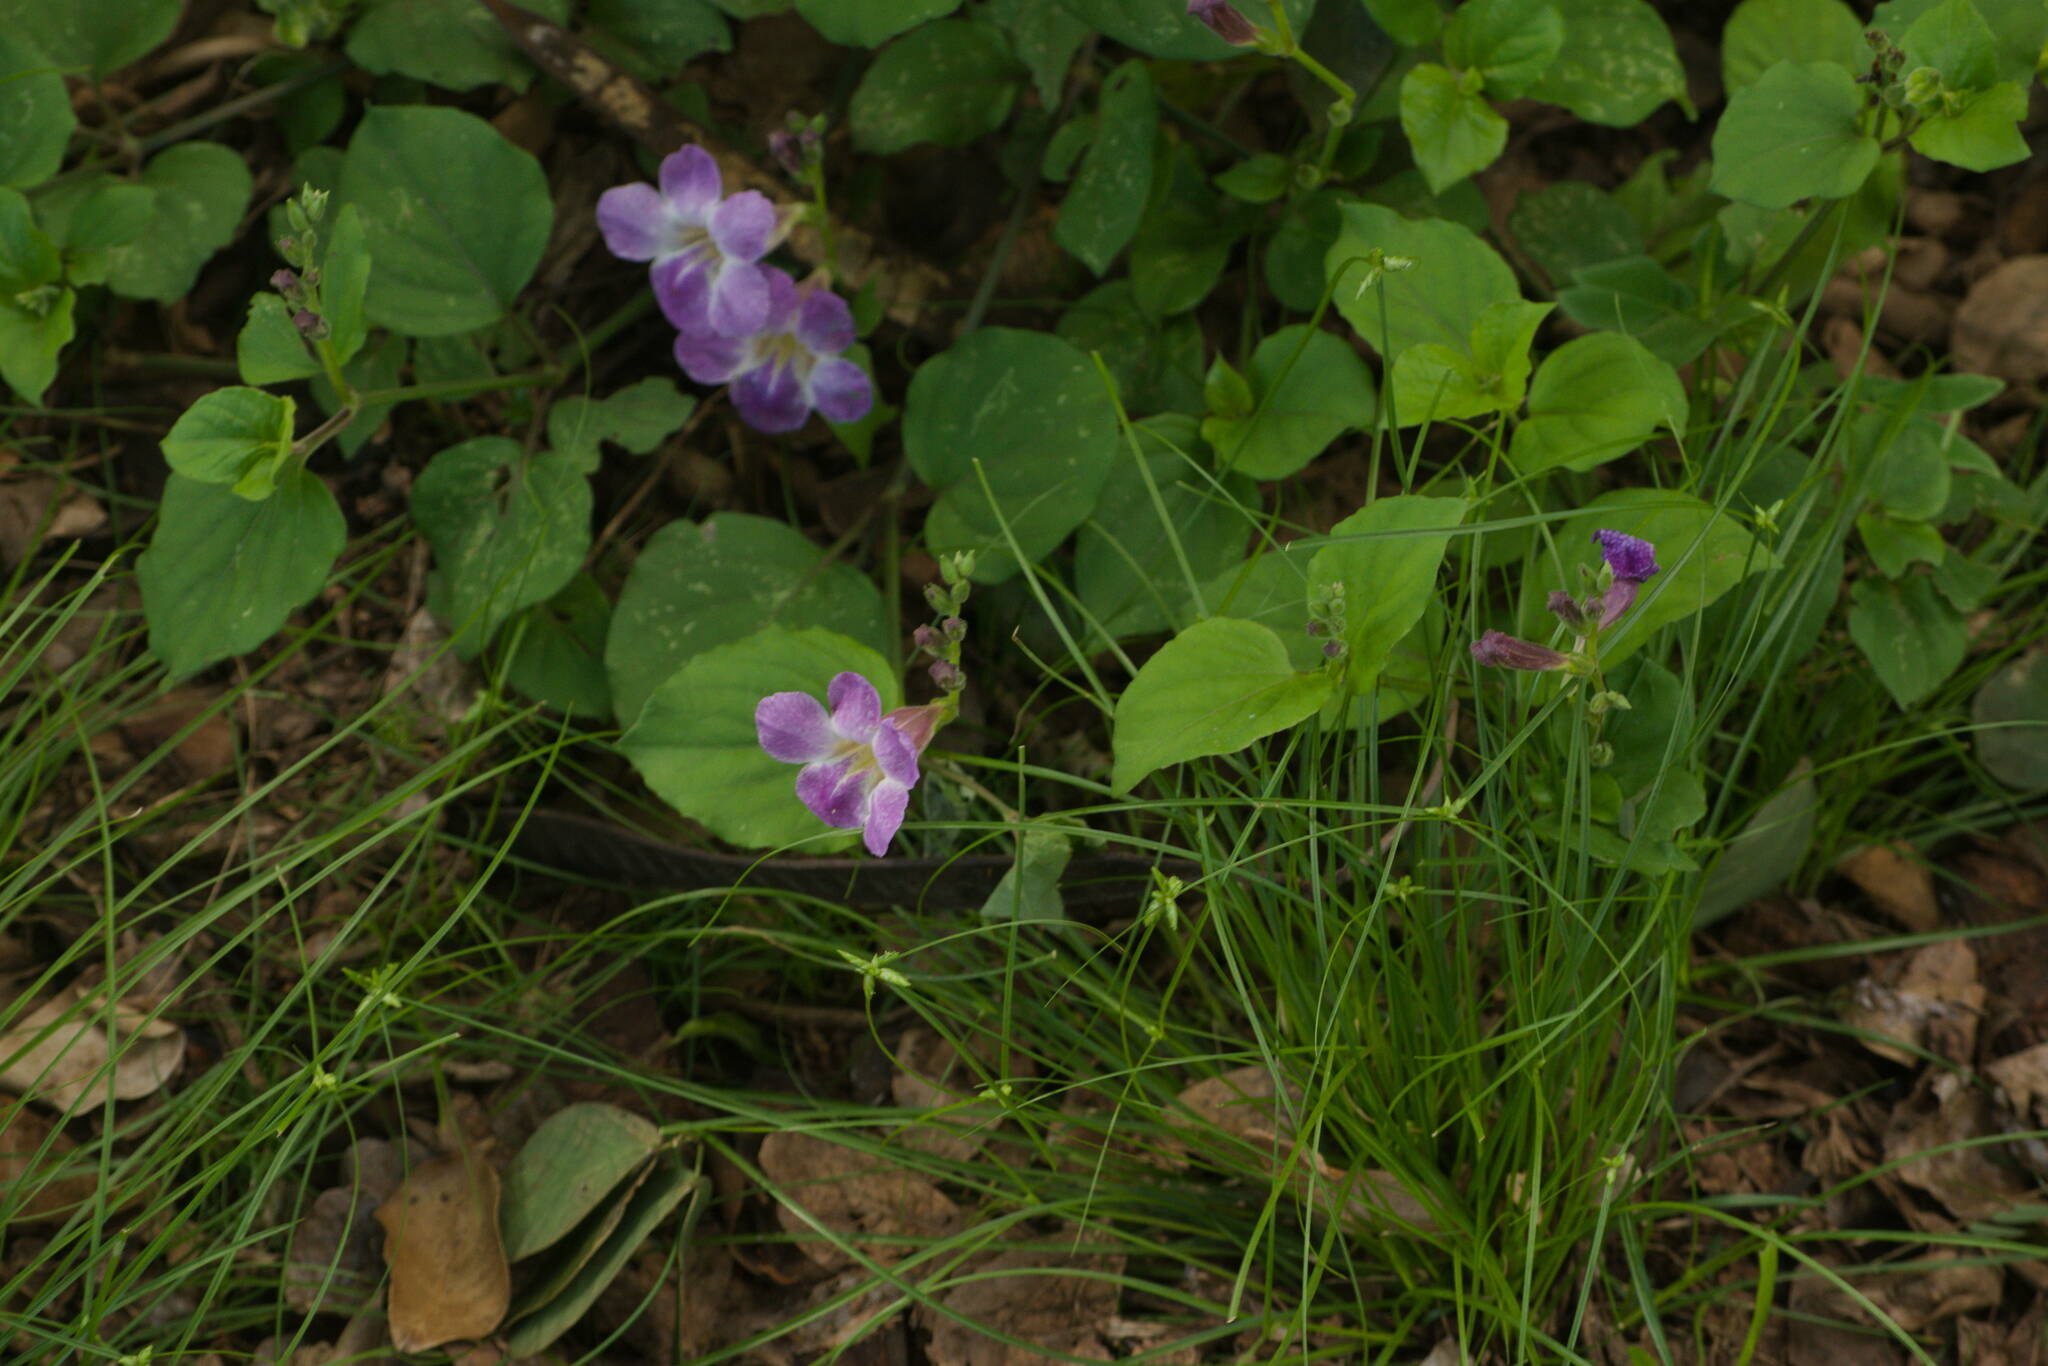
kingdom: Plantae
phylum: Tracheophyta
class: Magnoliopsida
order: Lamiales
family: Acanthaceae
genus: Asystasia
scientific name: Asystasia gangetica
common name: Chinese violet
